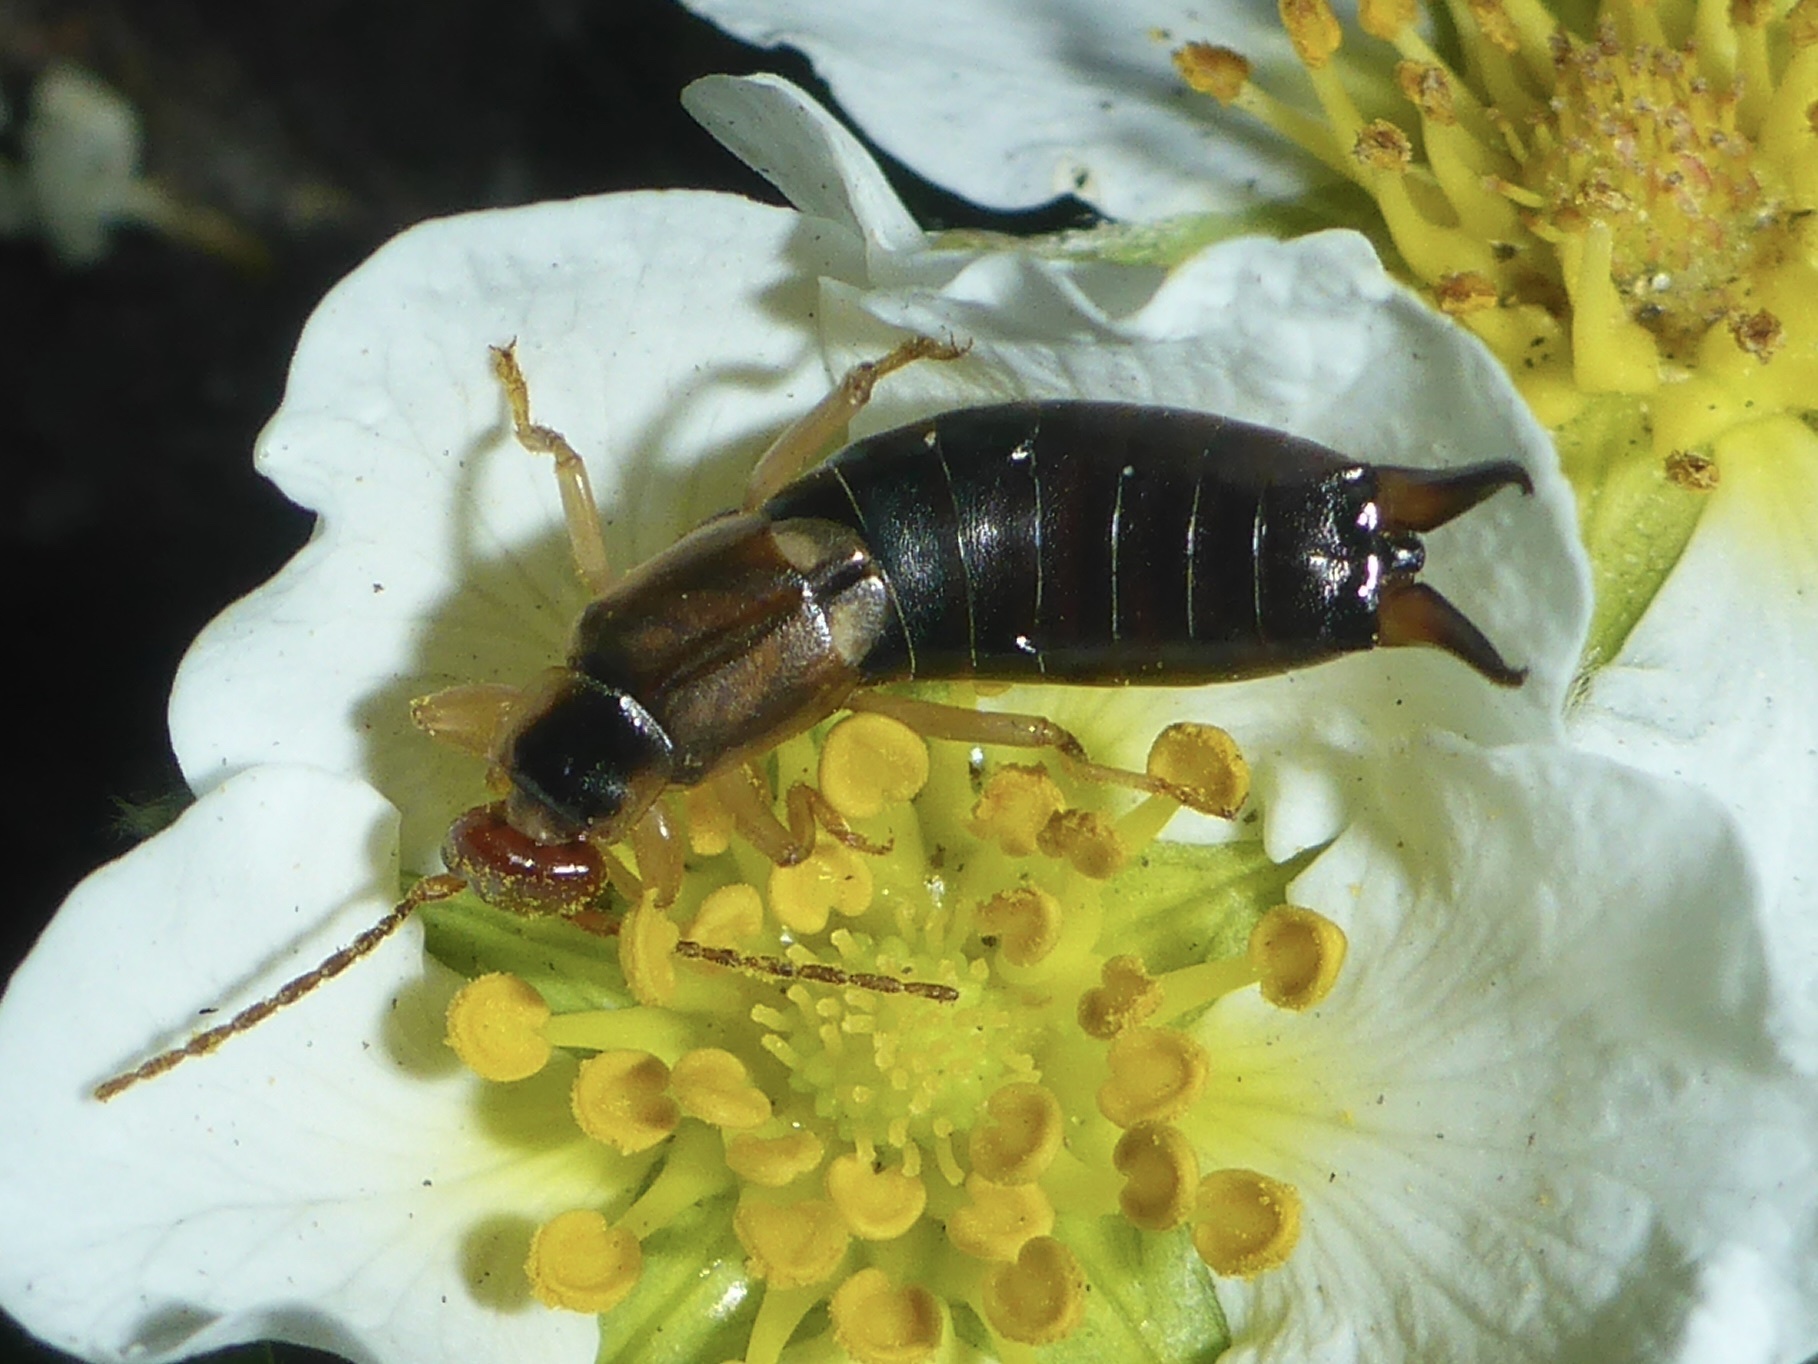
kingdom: Animalia
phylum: Arthropoda
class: Insecta
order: Dermaptera
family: Forficulidae
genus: Forficula
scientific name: Forficula
